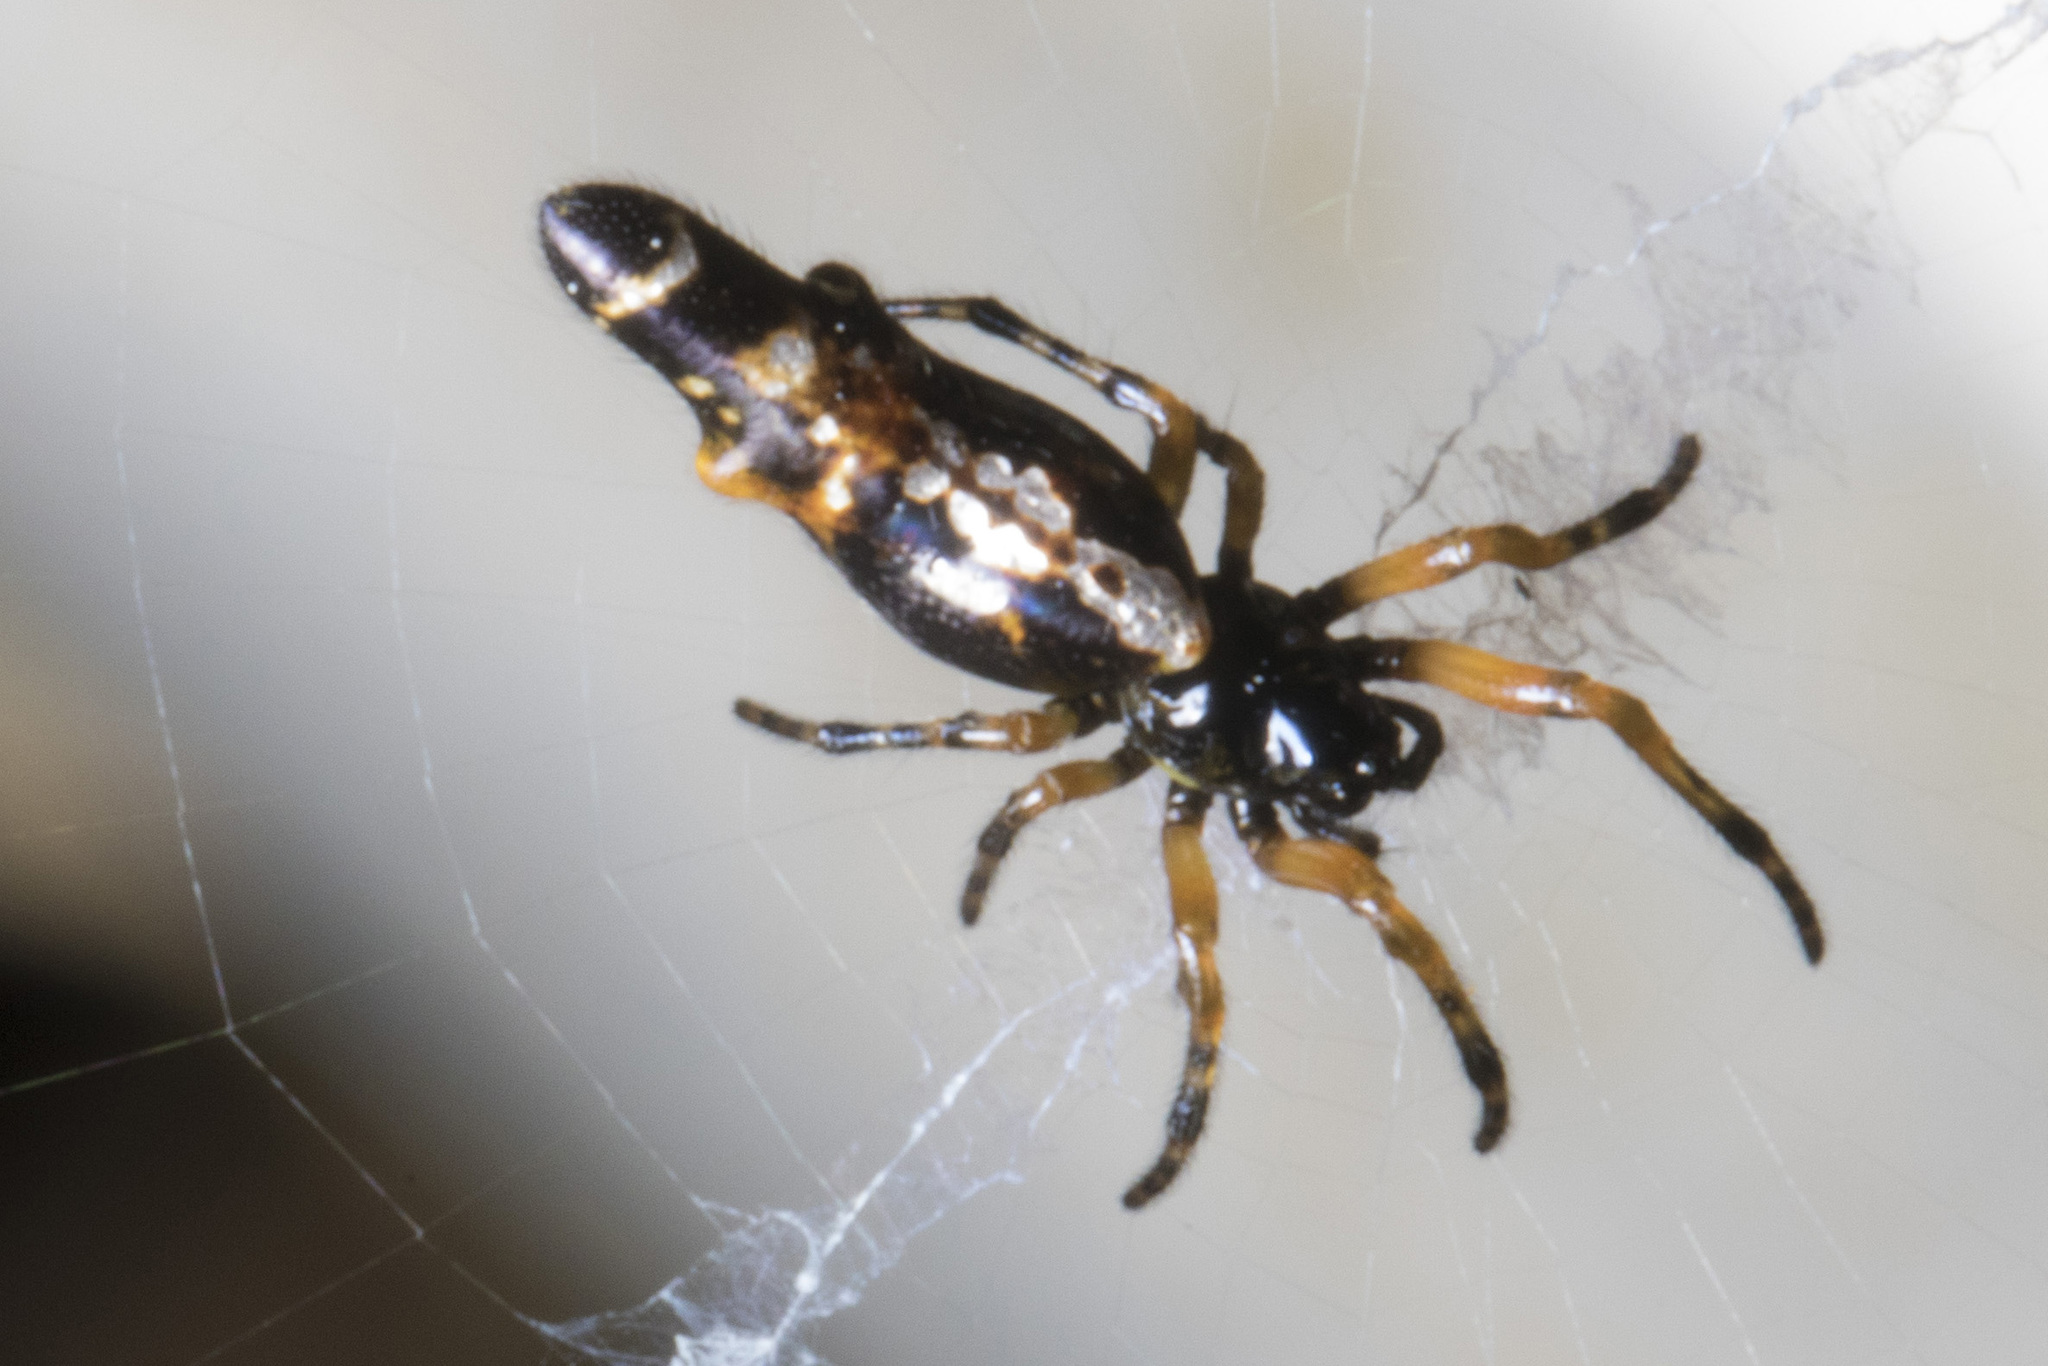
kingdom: Animalia
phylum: Arthropoda
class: Arachnida
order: Araneae
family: Araneidae
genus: Cyclosa
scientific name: Cyclosa trilobata
